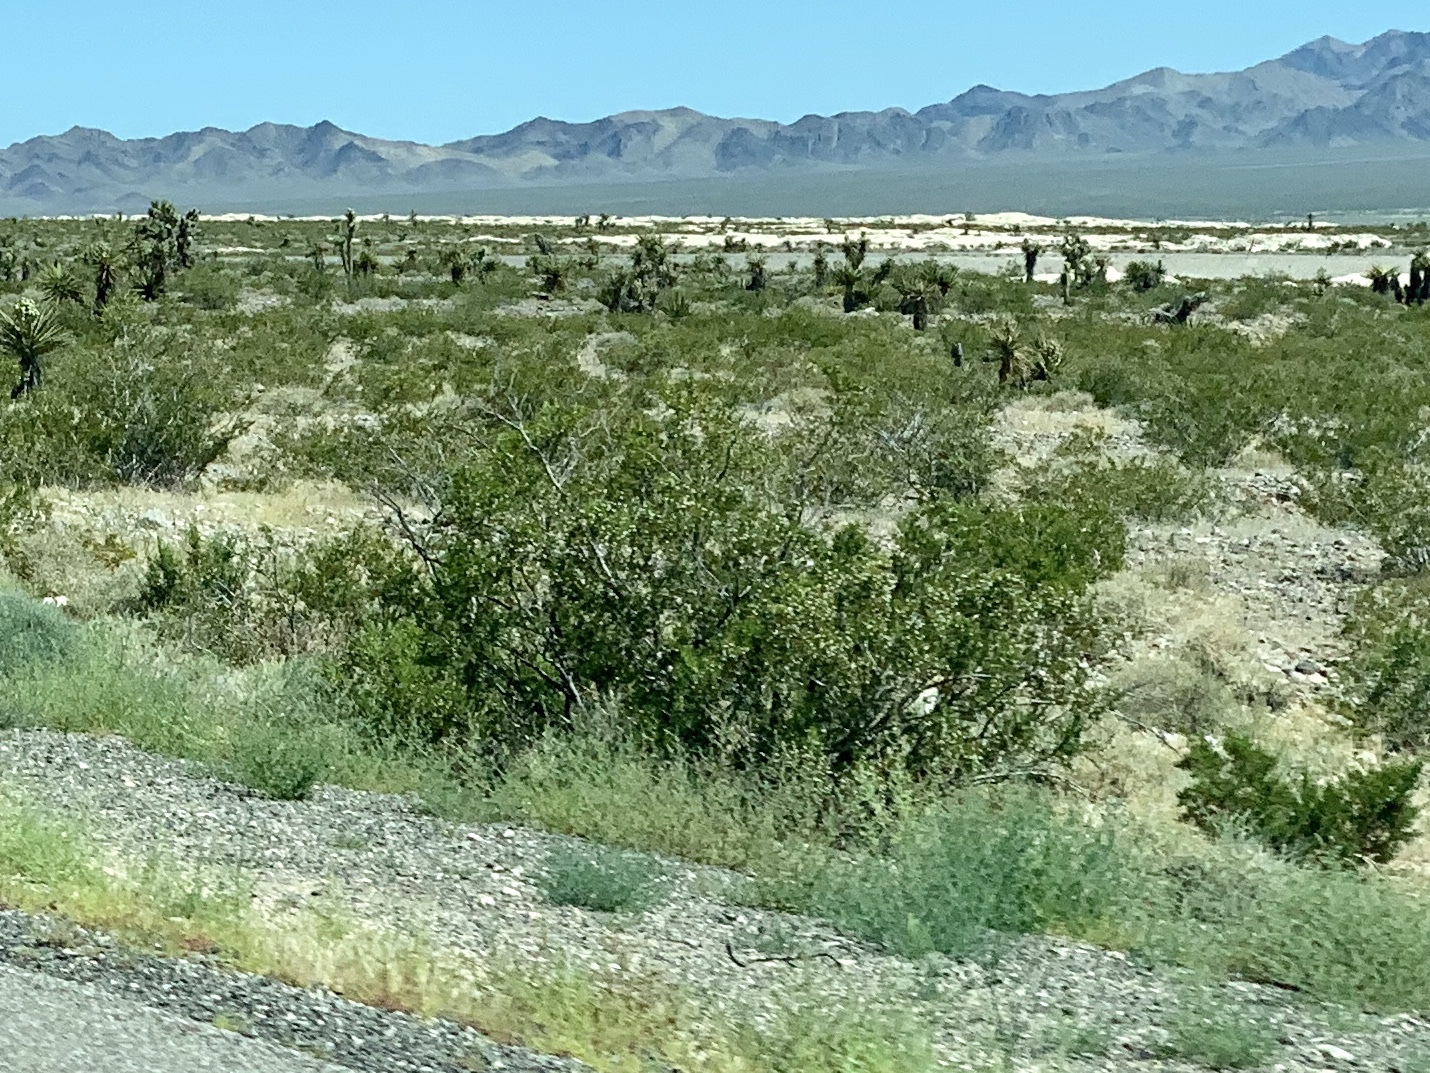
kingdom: Plantae
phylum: Tracheophyta
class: Magnoliopsida
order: Zygophyllales
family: Zygophyllaceae
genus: Larrea
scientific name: Larrea tridentata
